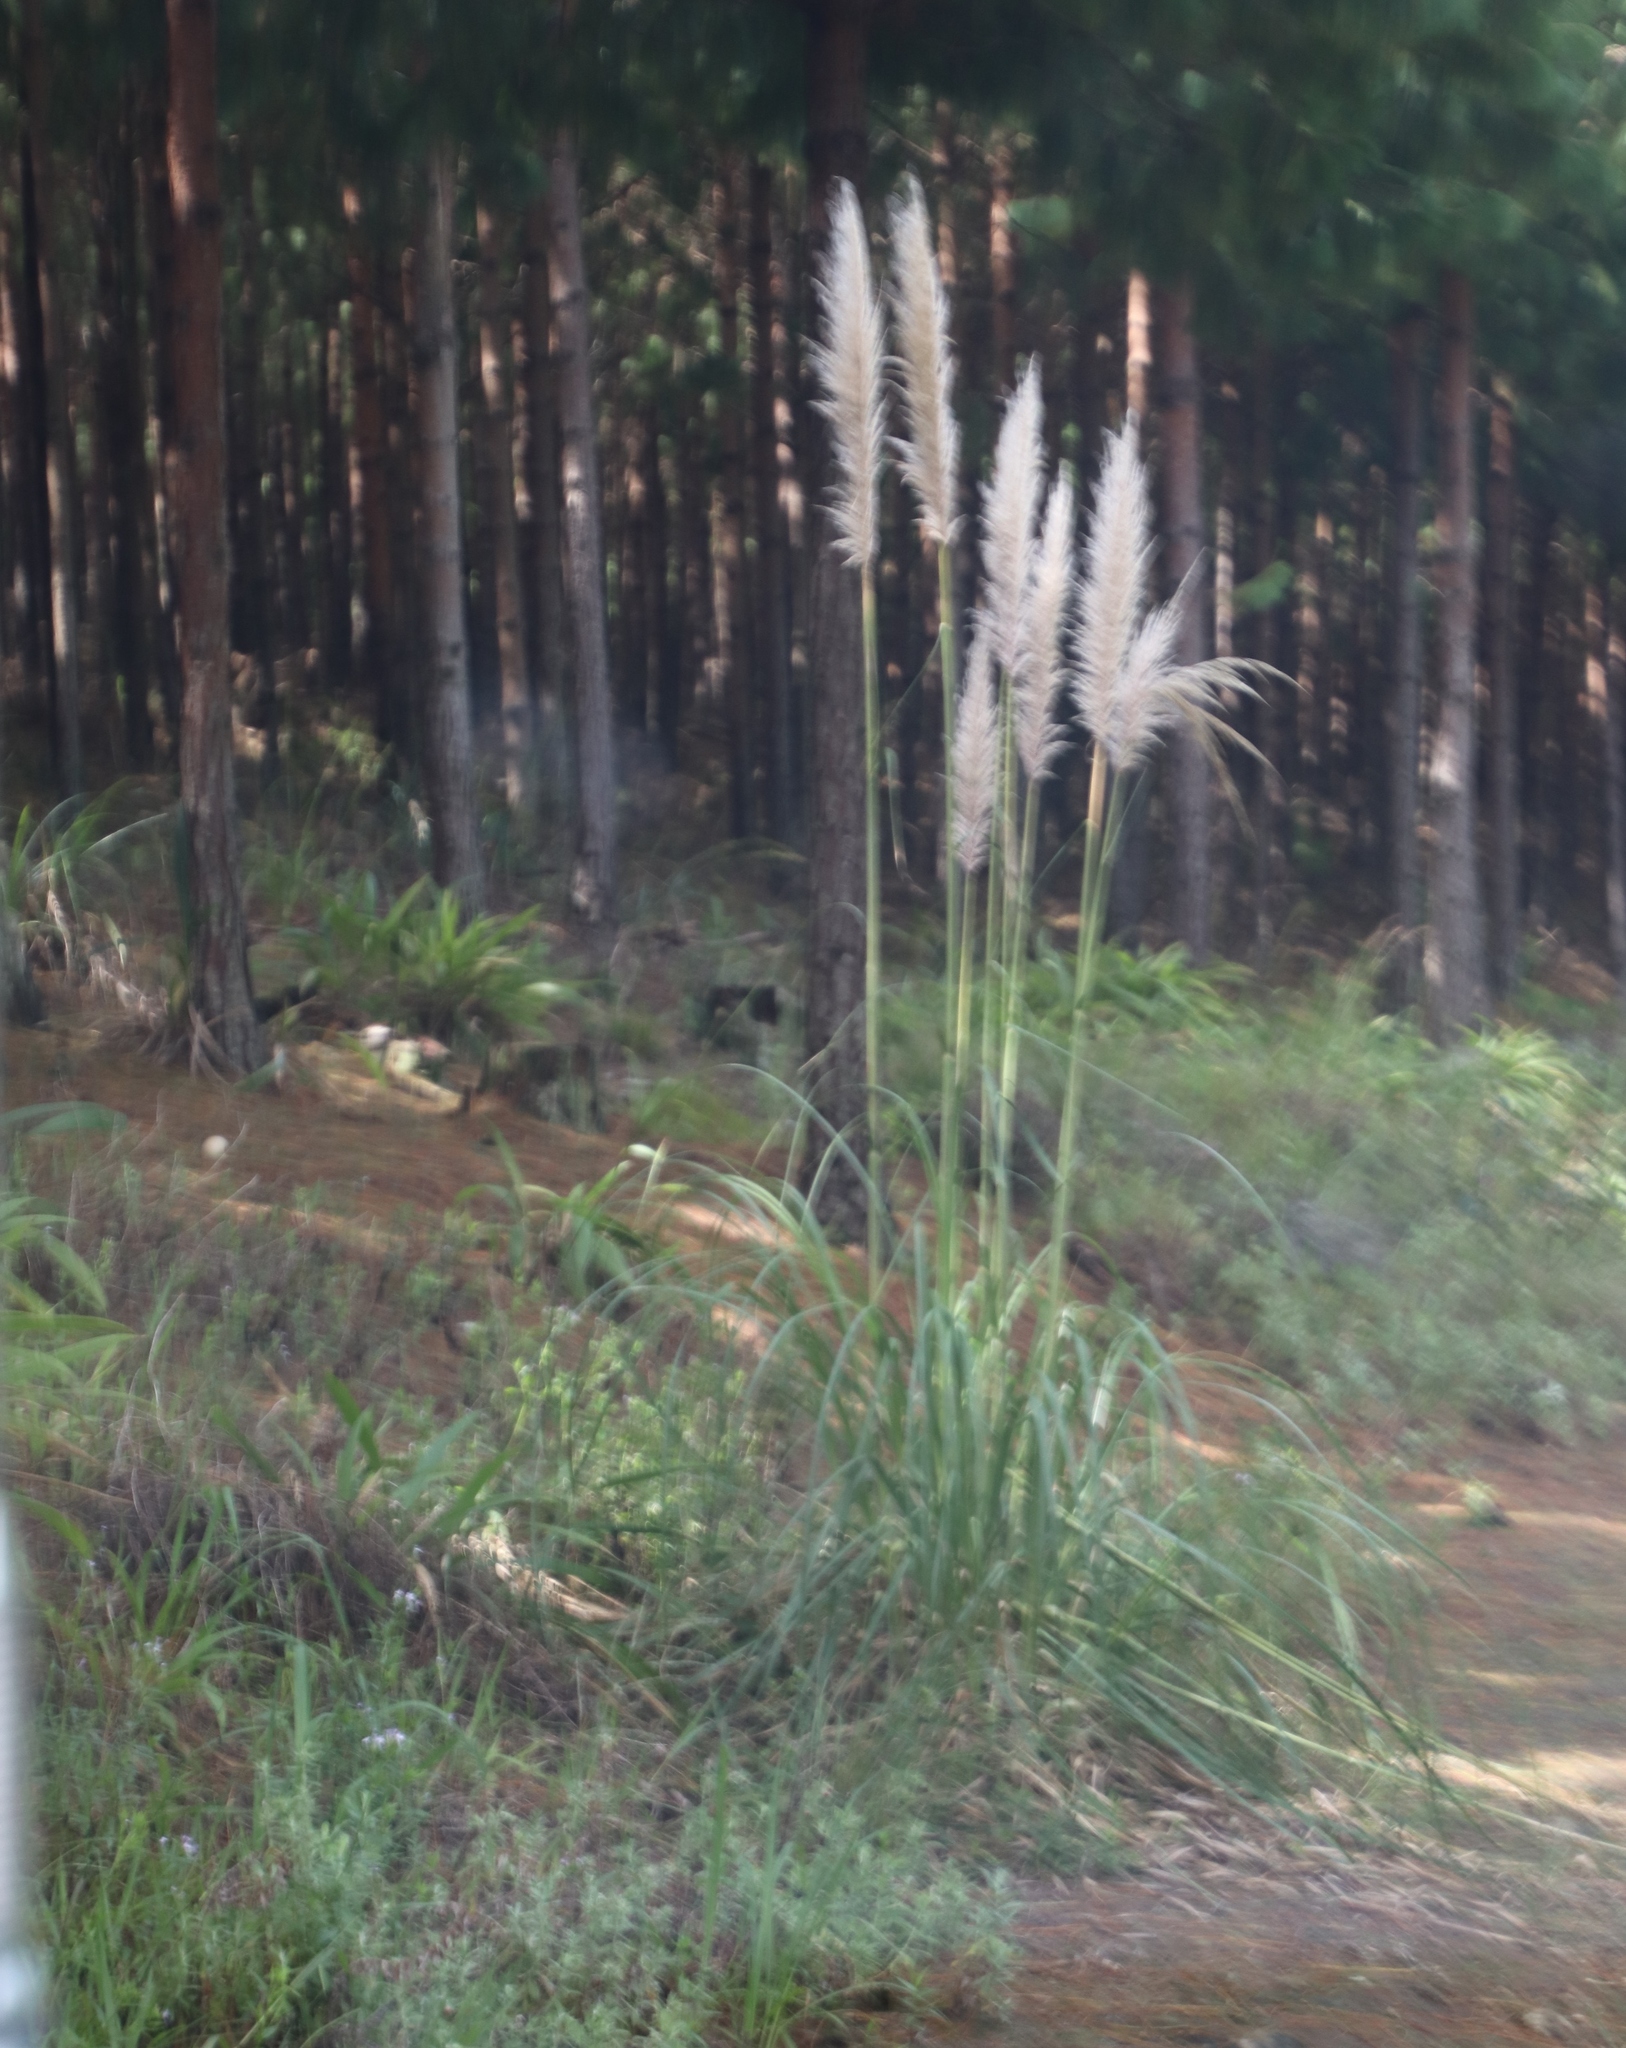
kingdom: Plantae
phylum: Tracheophyta
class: Liliopsida
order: Poales
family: Poaceae
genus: Cortaderia
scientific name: Cortaderia selloana
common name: Uruguayan pampas grass
